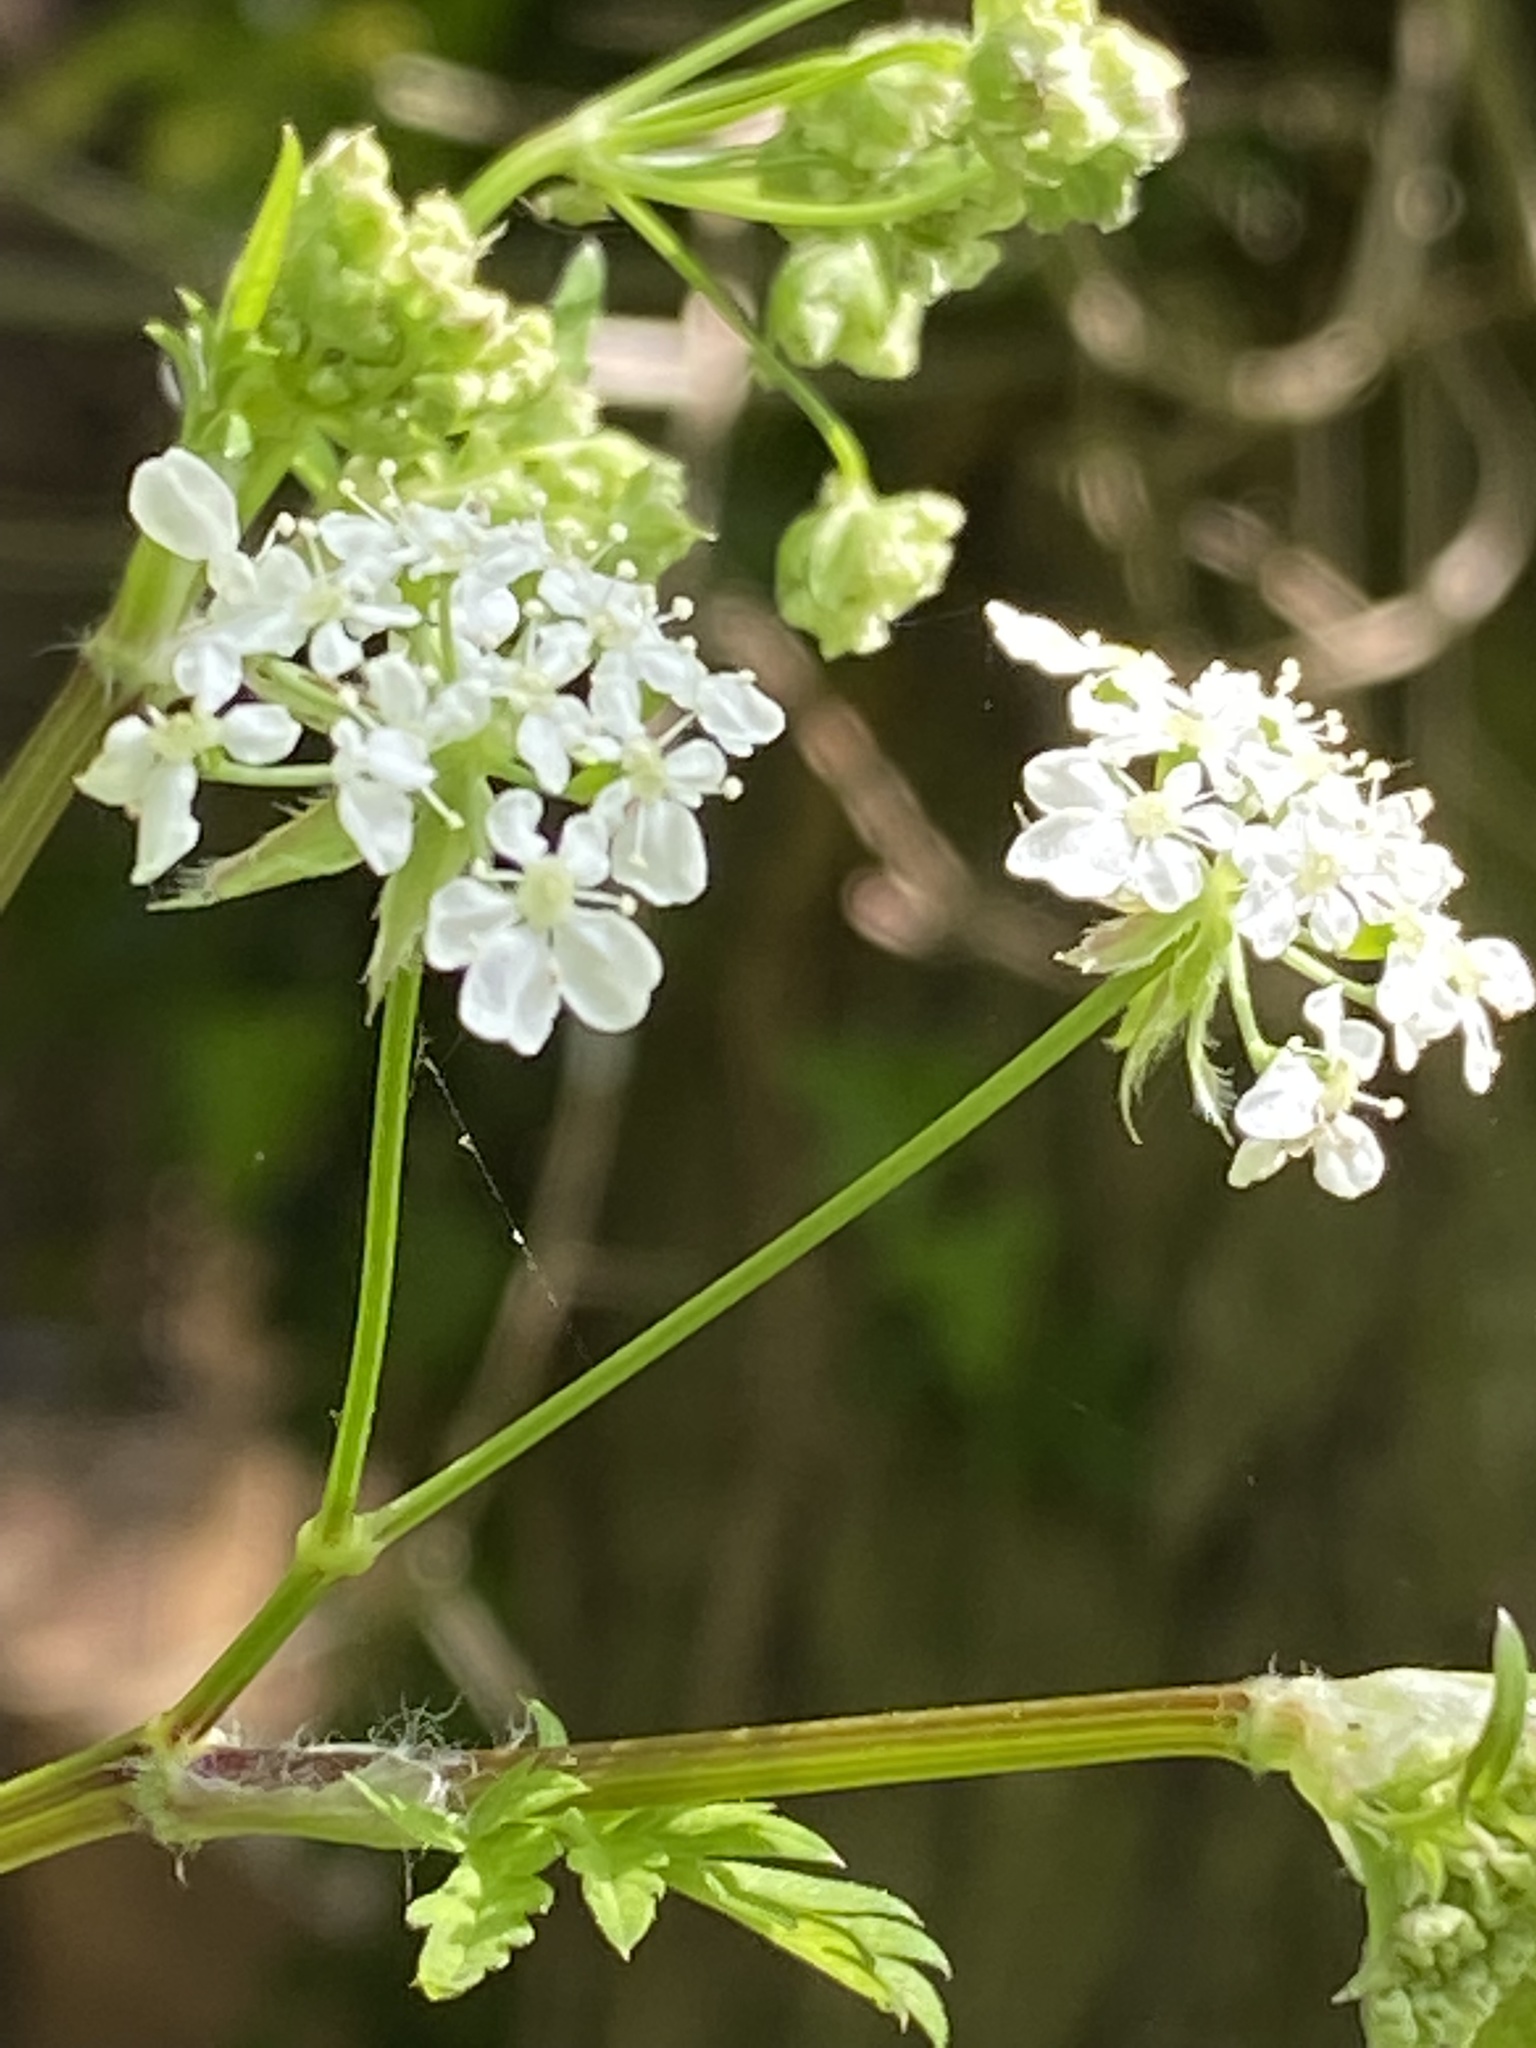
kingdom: Plantae
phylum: Tracheophyta
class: Magnoliopsida
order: Apiales
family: Apiaceae
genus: Anthriscus
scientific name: Anthriscus sylvestris
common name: Cow parsley
